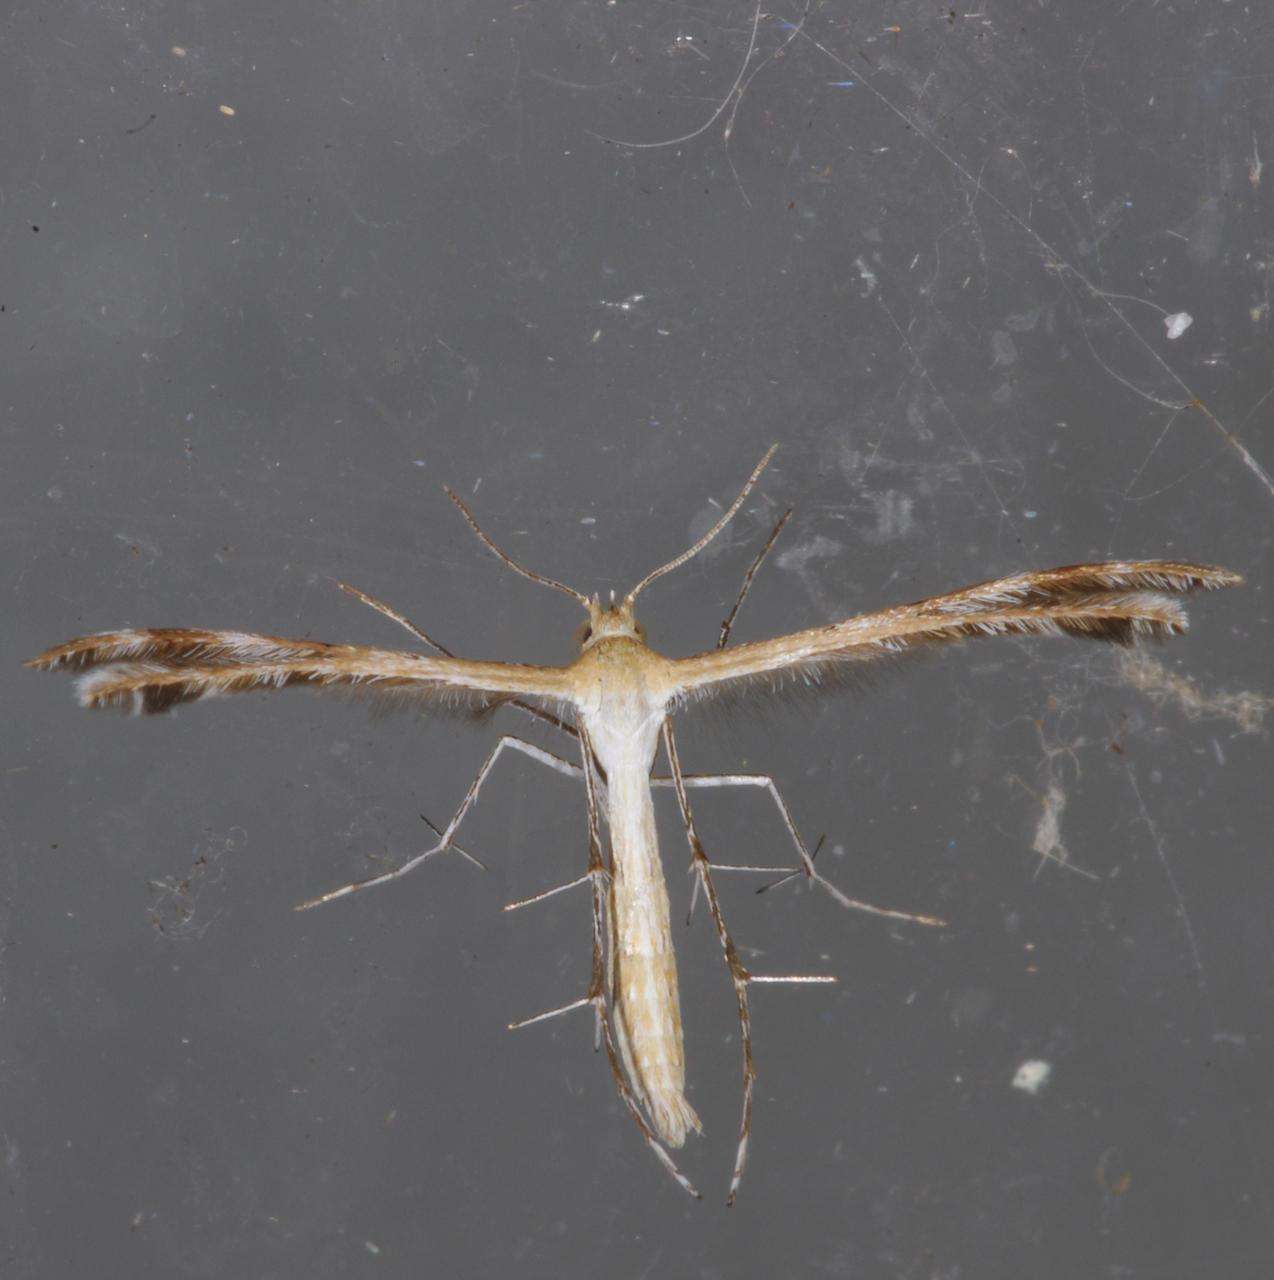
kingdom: Animalia
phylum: Arthropoda
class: Insecta
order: Lepidoptera
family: Pterophoridae
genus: Megalorhipida
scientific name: Megalorhipida leucodactylus
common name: Plume moth
